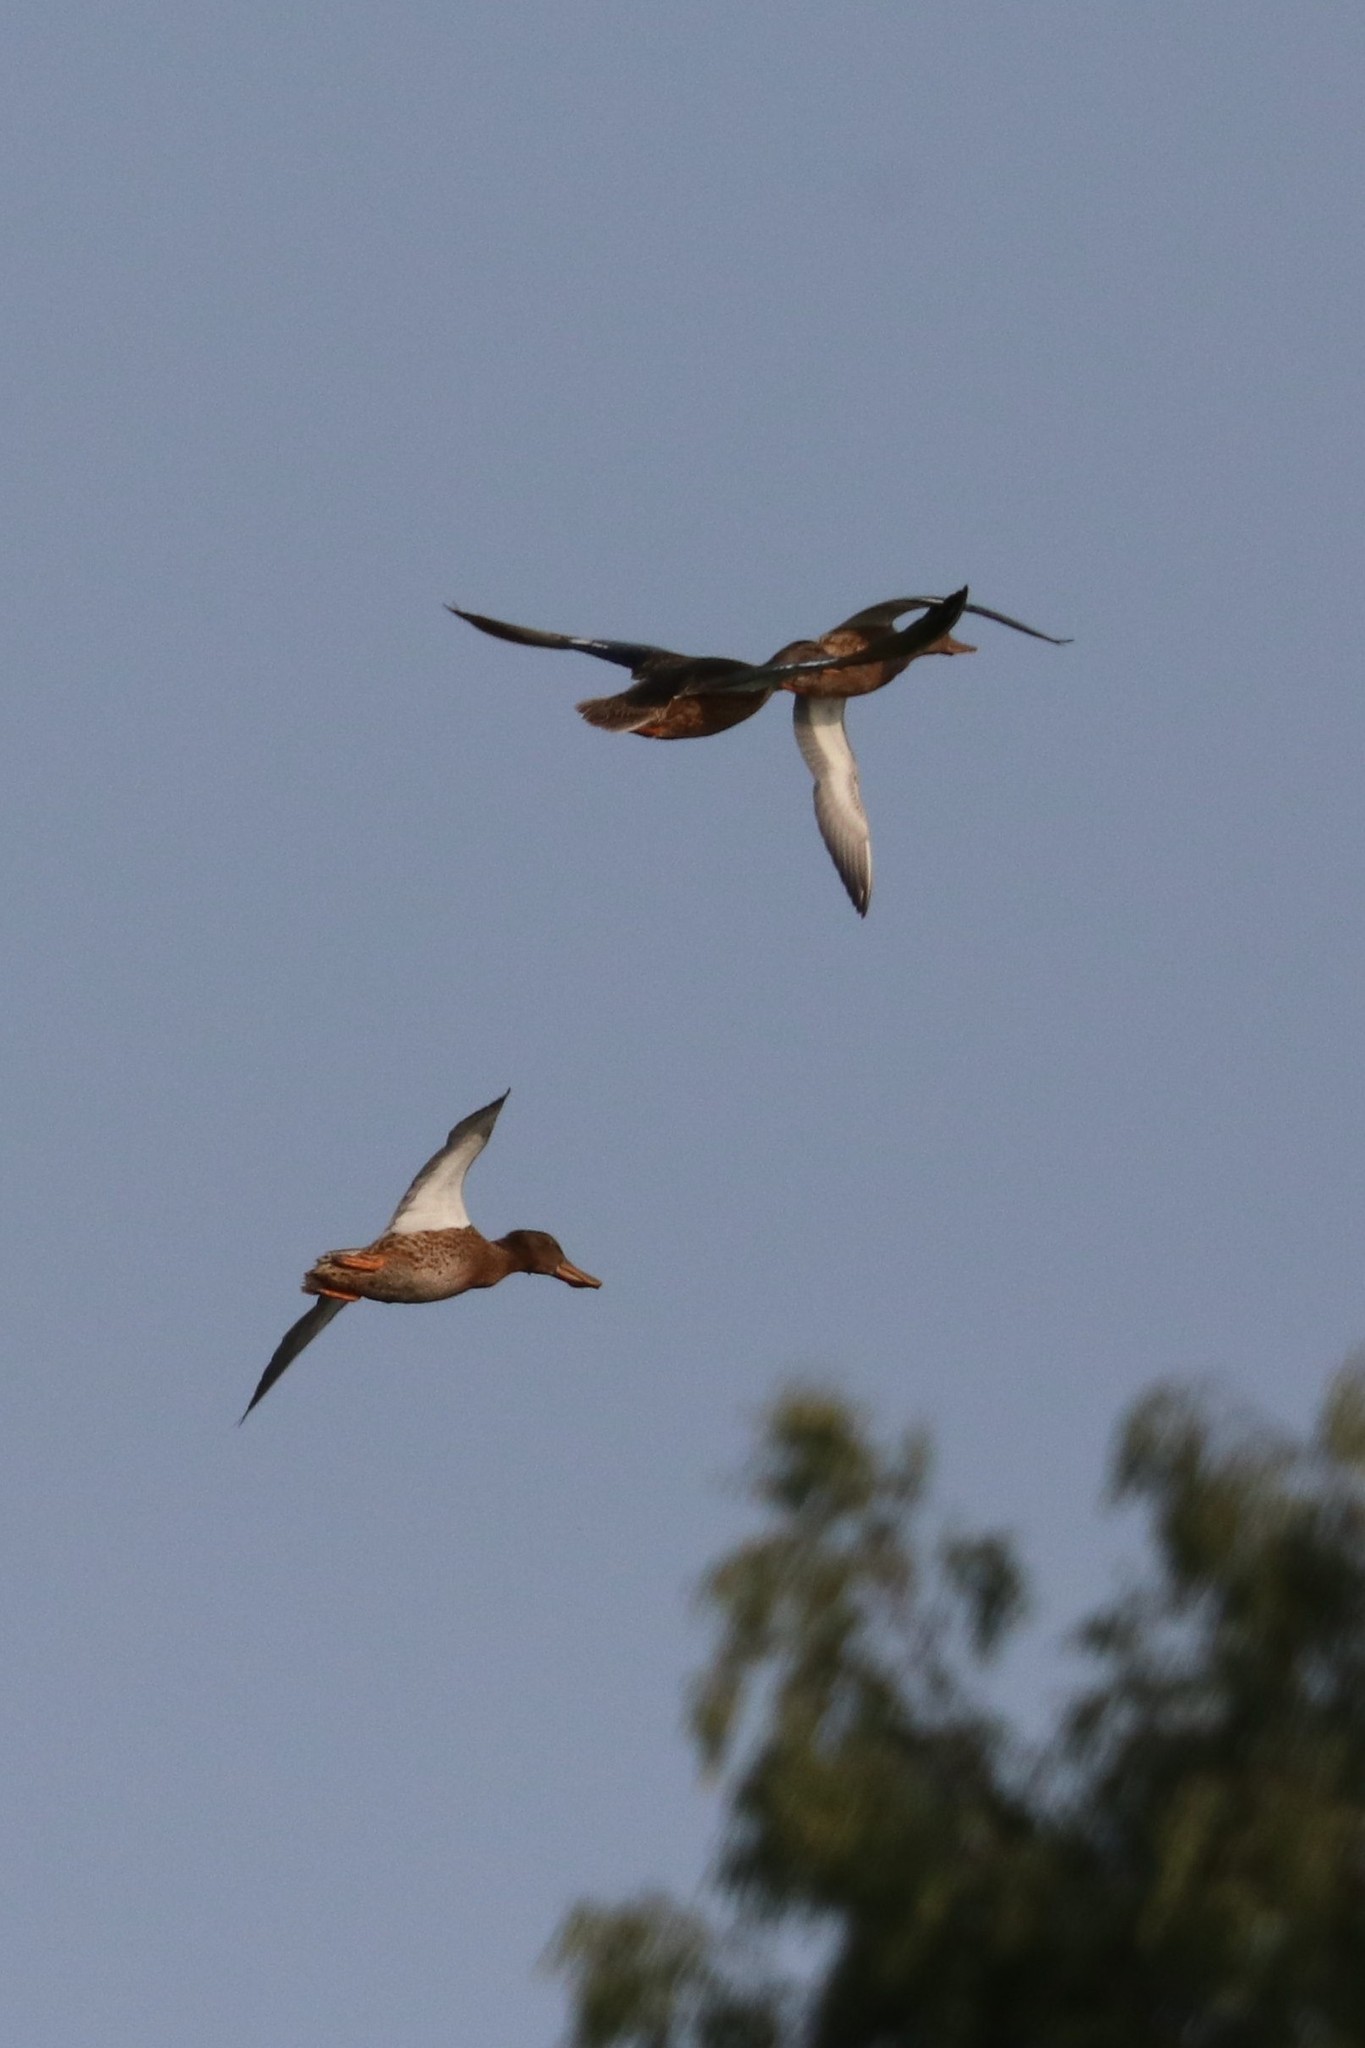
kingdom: Animalia
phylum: Chordata
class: Aves
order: Anseriformes
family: Anatidae
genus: Spatula
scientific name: Spatula clypeata
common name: Northern shoveler
